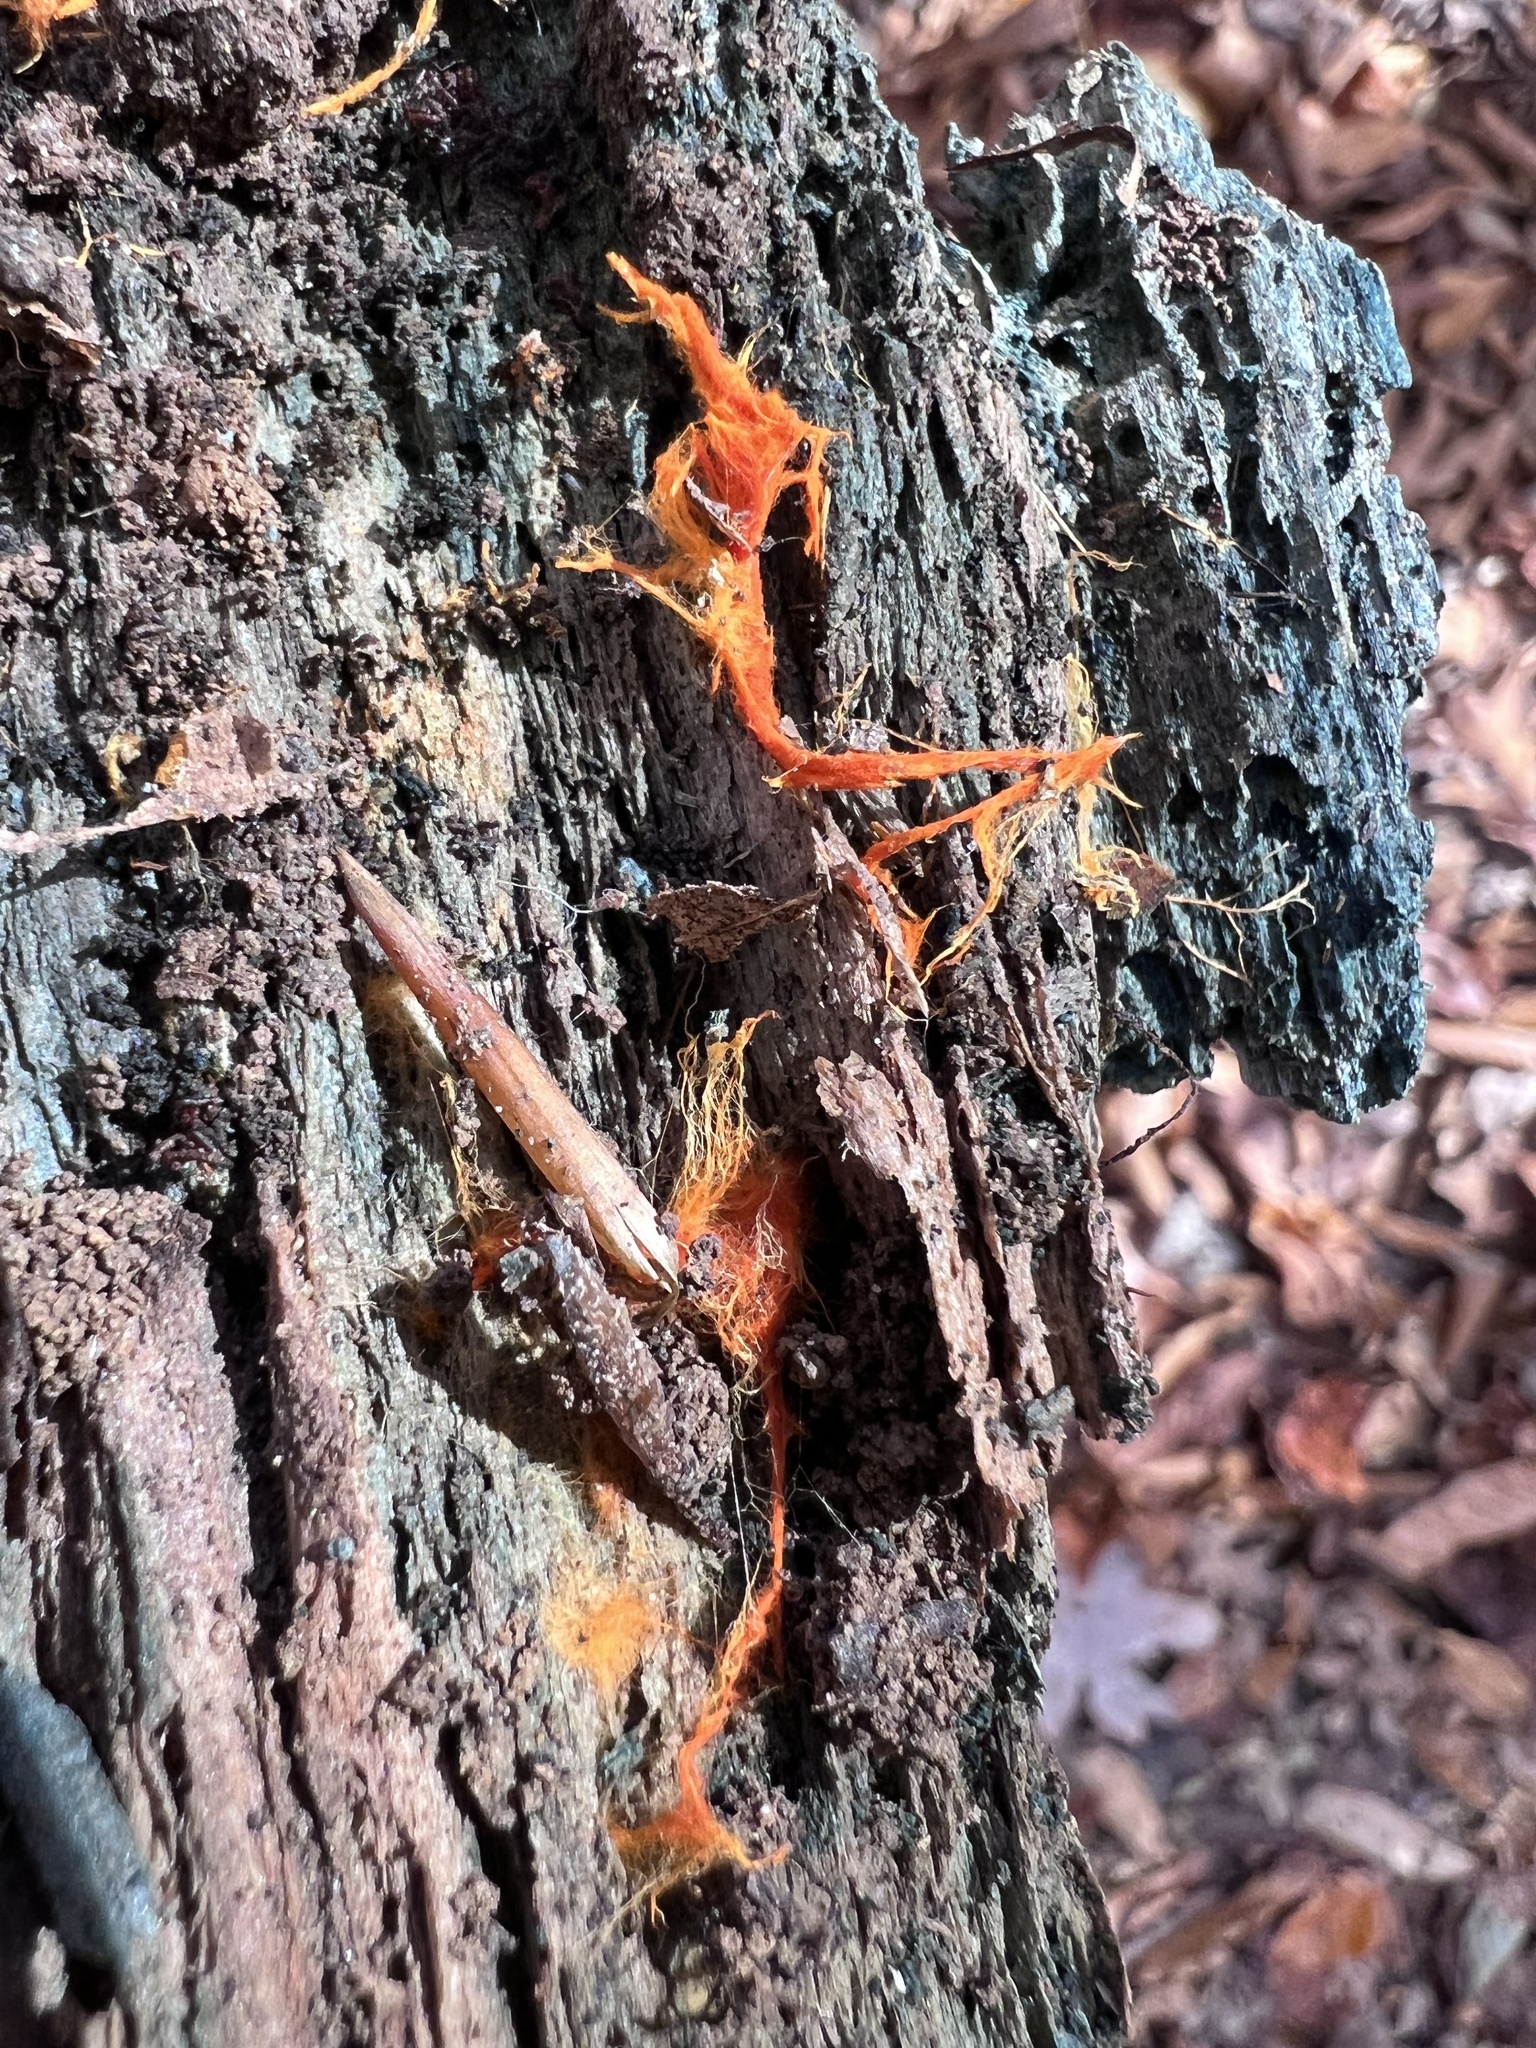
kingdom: Fungi
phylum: Basidiomycota
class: Agaricomycetes
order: Polyporales
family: Meruliaceae
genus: Hydnophlebia
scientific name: Hydnophlebia chrysorhiza
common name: Spreading yellow tooth
